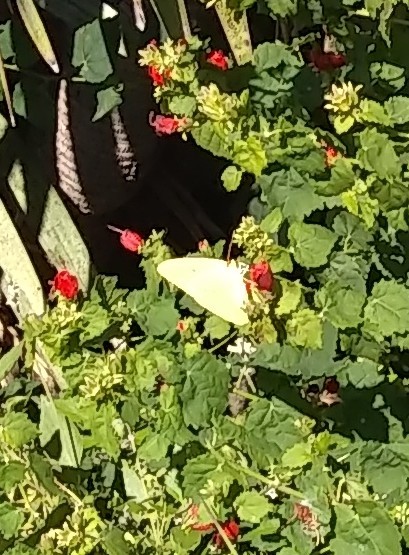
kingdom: Animalia
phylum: Arthropoda
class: Insecta
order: Lepidoptera
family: Pieridae
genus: Phoebis
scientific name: Phoebis sennae
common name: Cloudless sulphur
